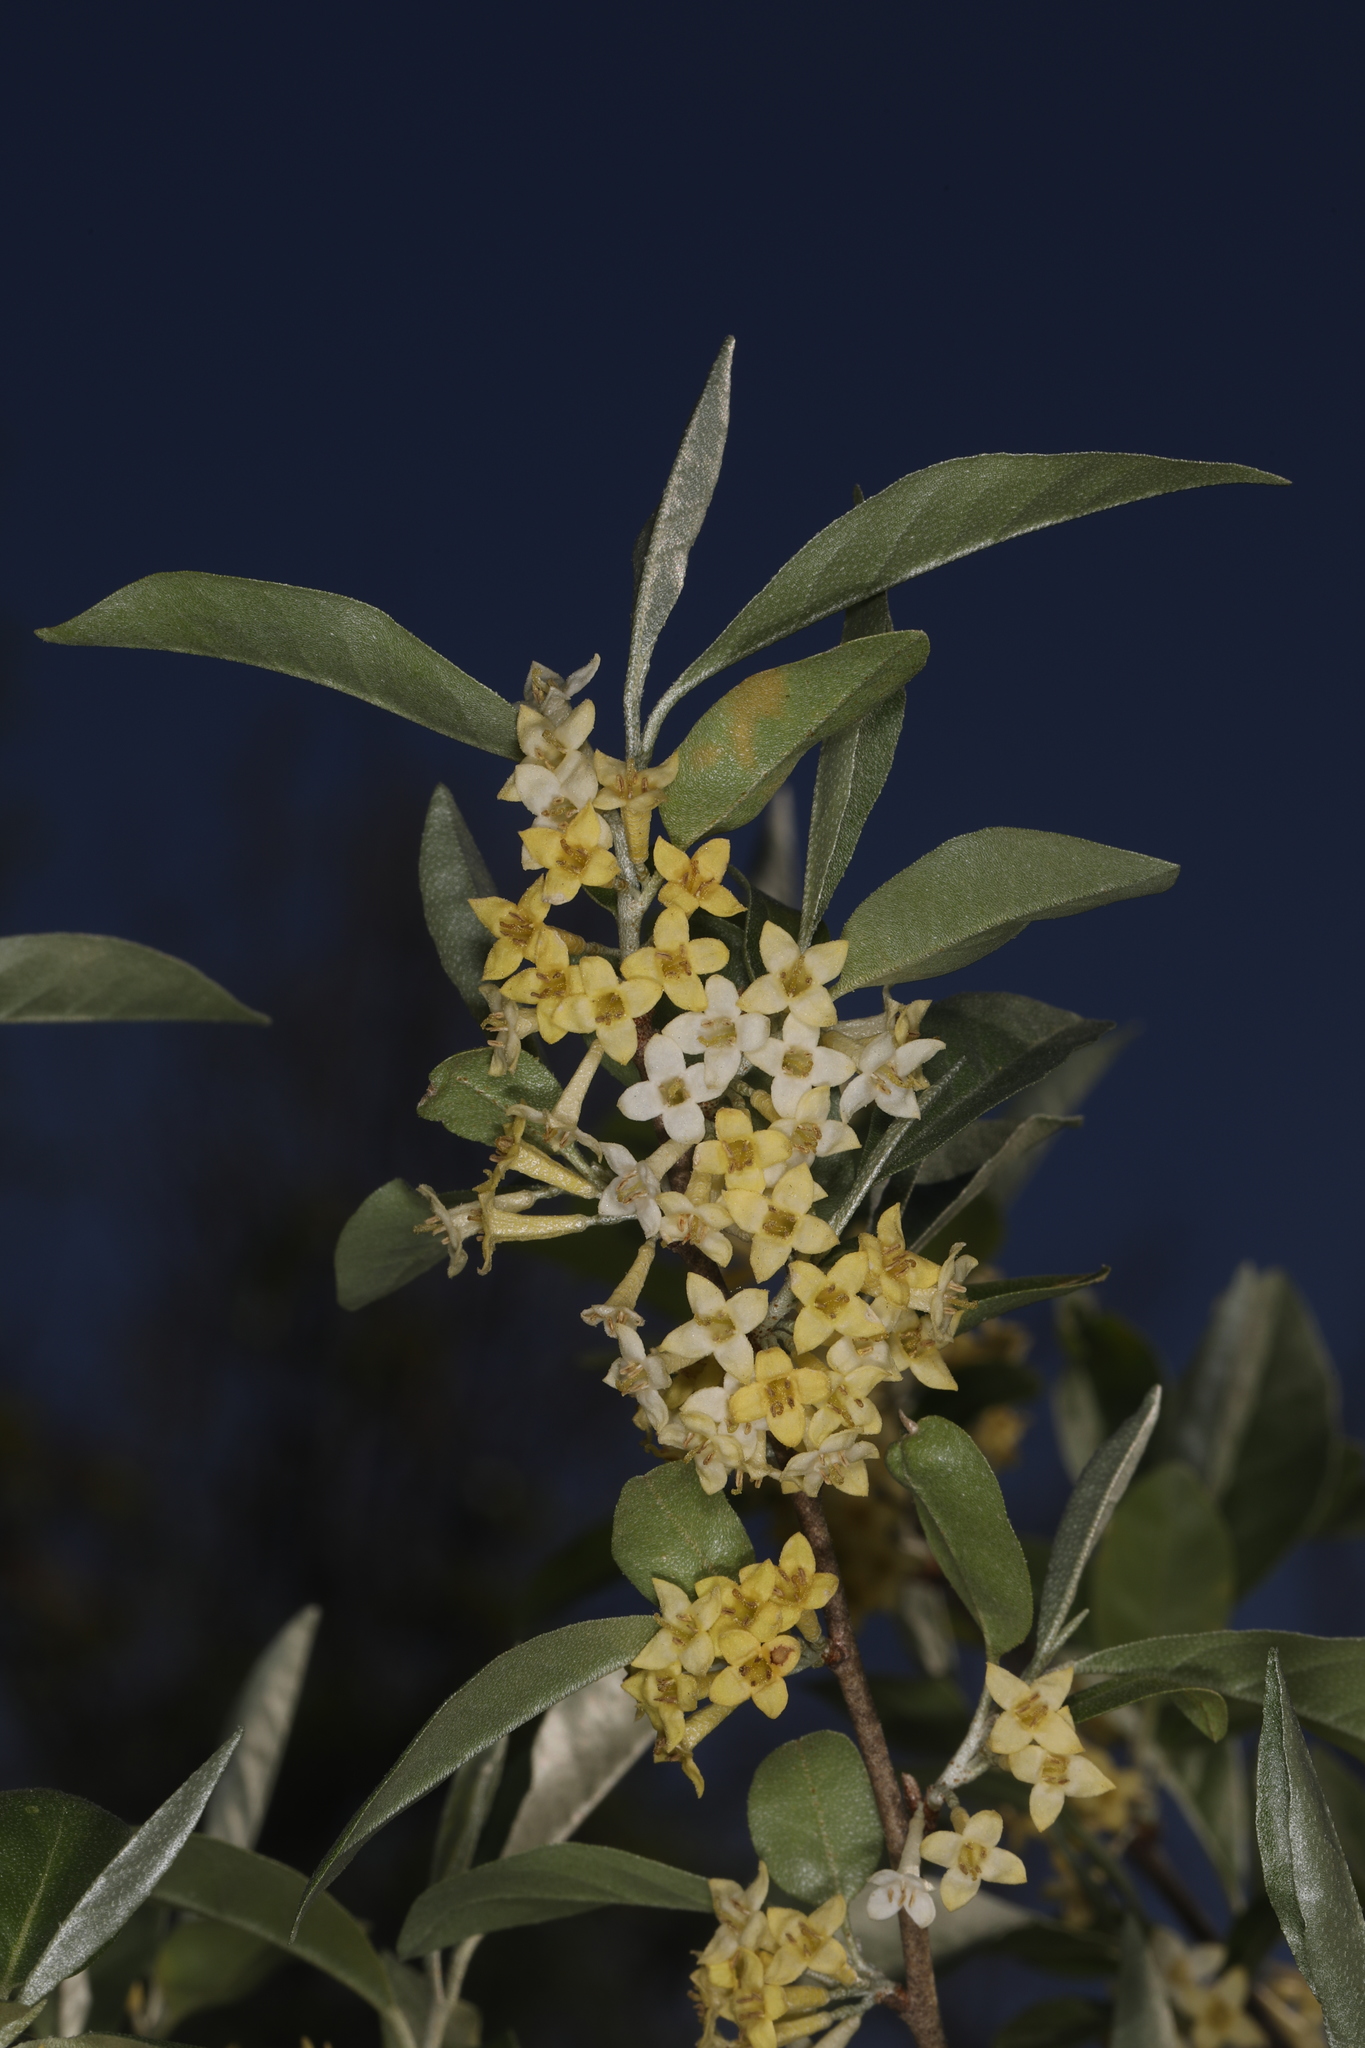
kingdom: Plantae
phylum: Tracheophyta
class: Magnoliopsida
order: Rosales
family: Elaeagnaceae
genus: Elaeagnus
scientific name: Elaeagnus umbellata
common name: Autumn olive
